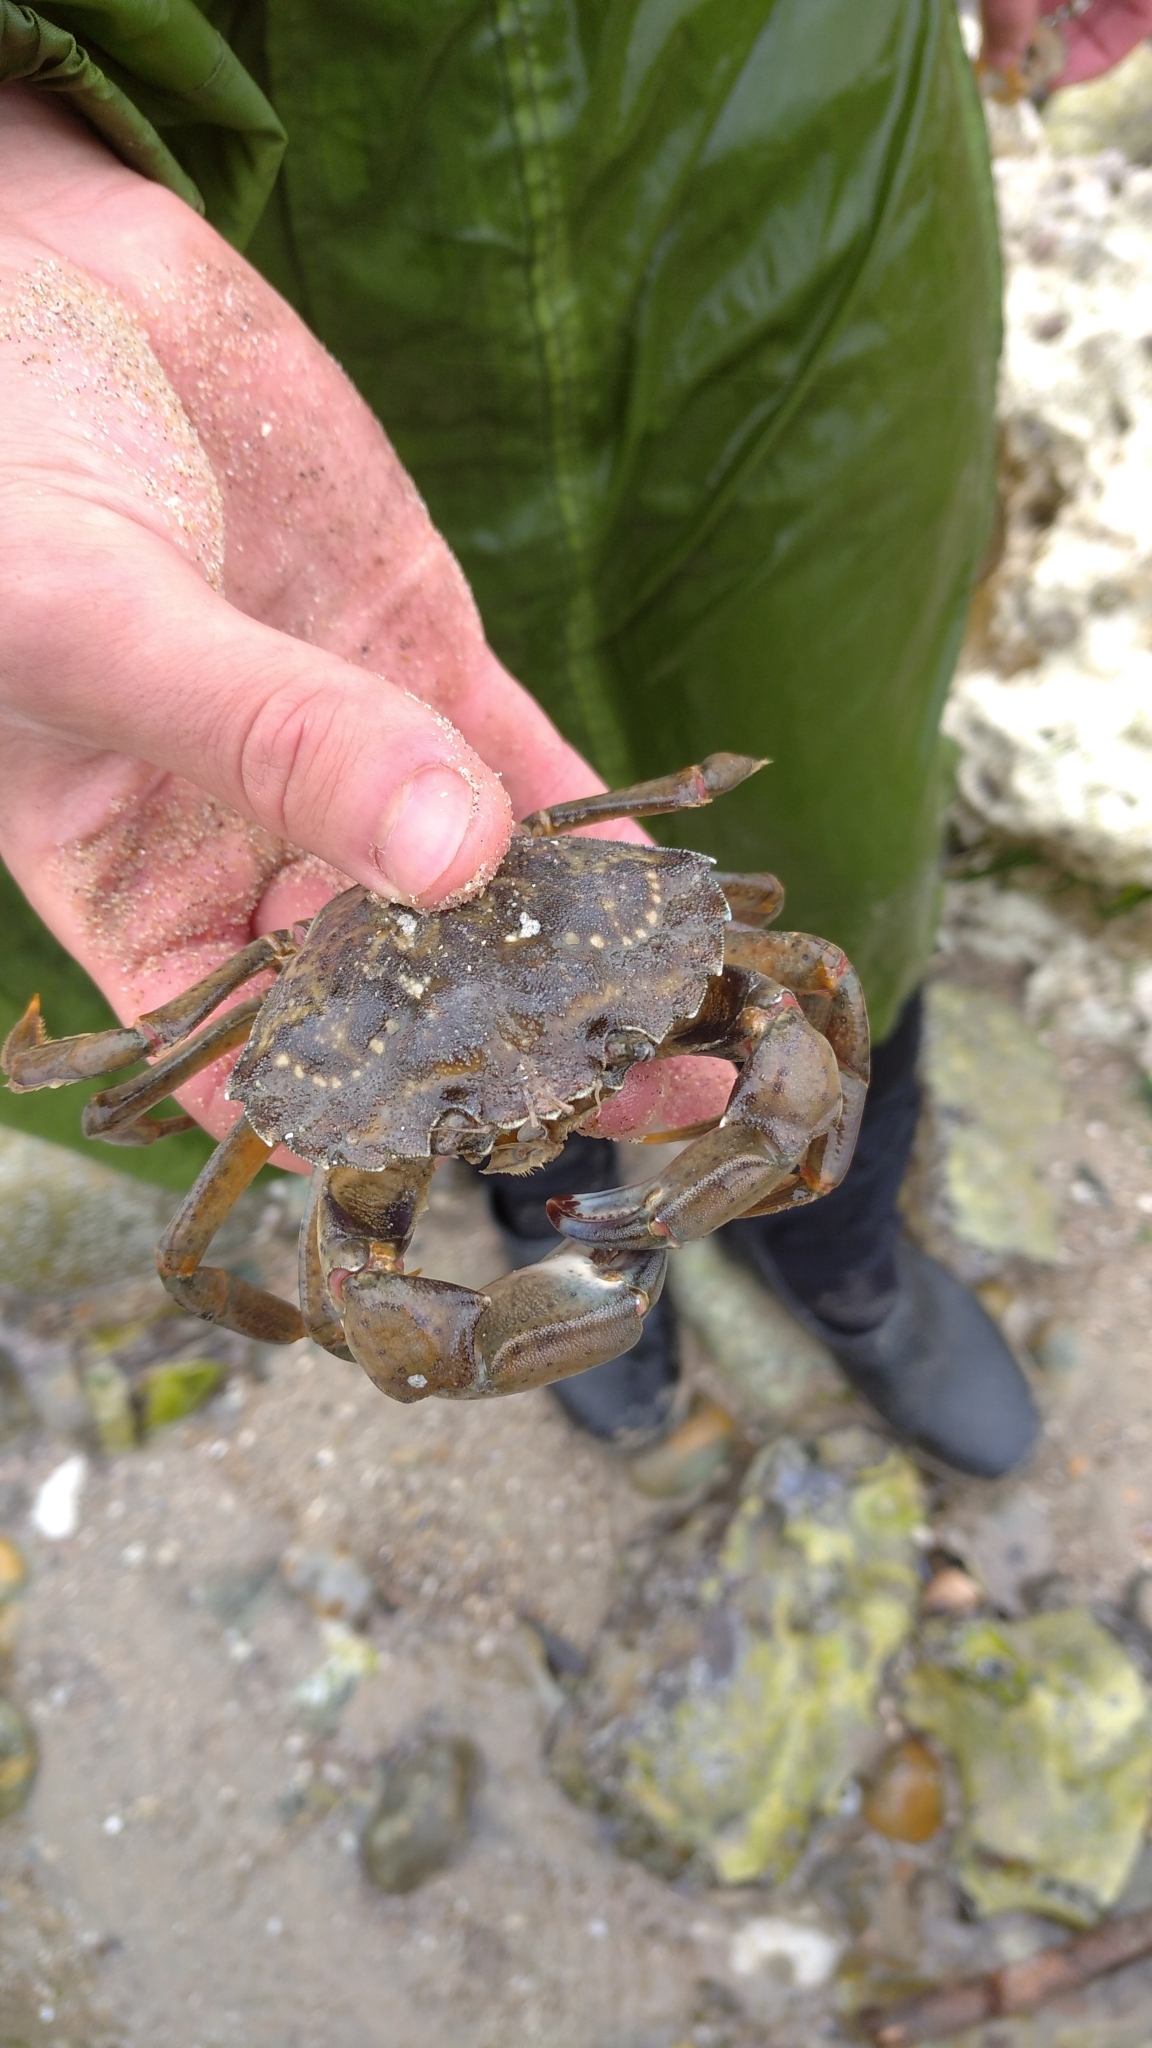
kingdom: Animalia
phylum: Arthropoda
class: Malacostraca
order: Decapoda
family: Carcinidae
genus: Carcinus
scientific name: Carcinus maenas
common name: European green crab
